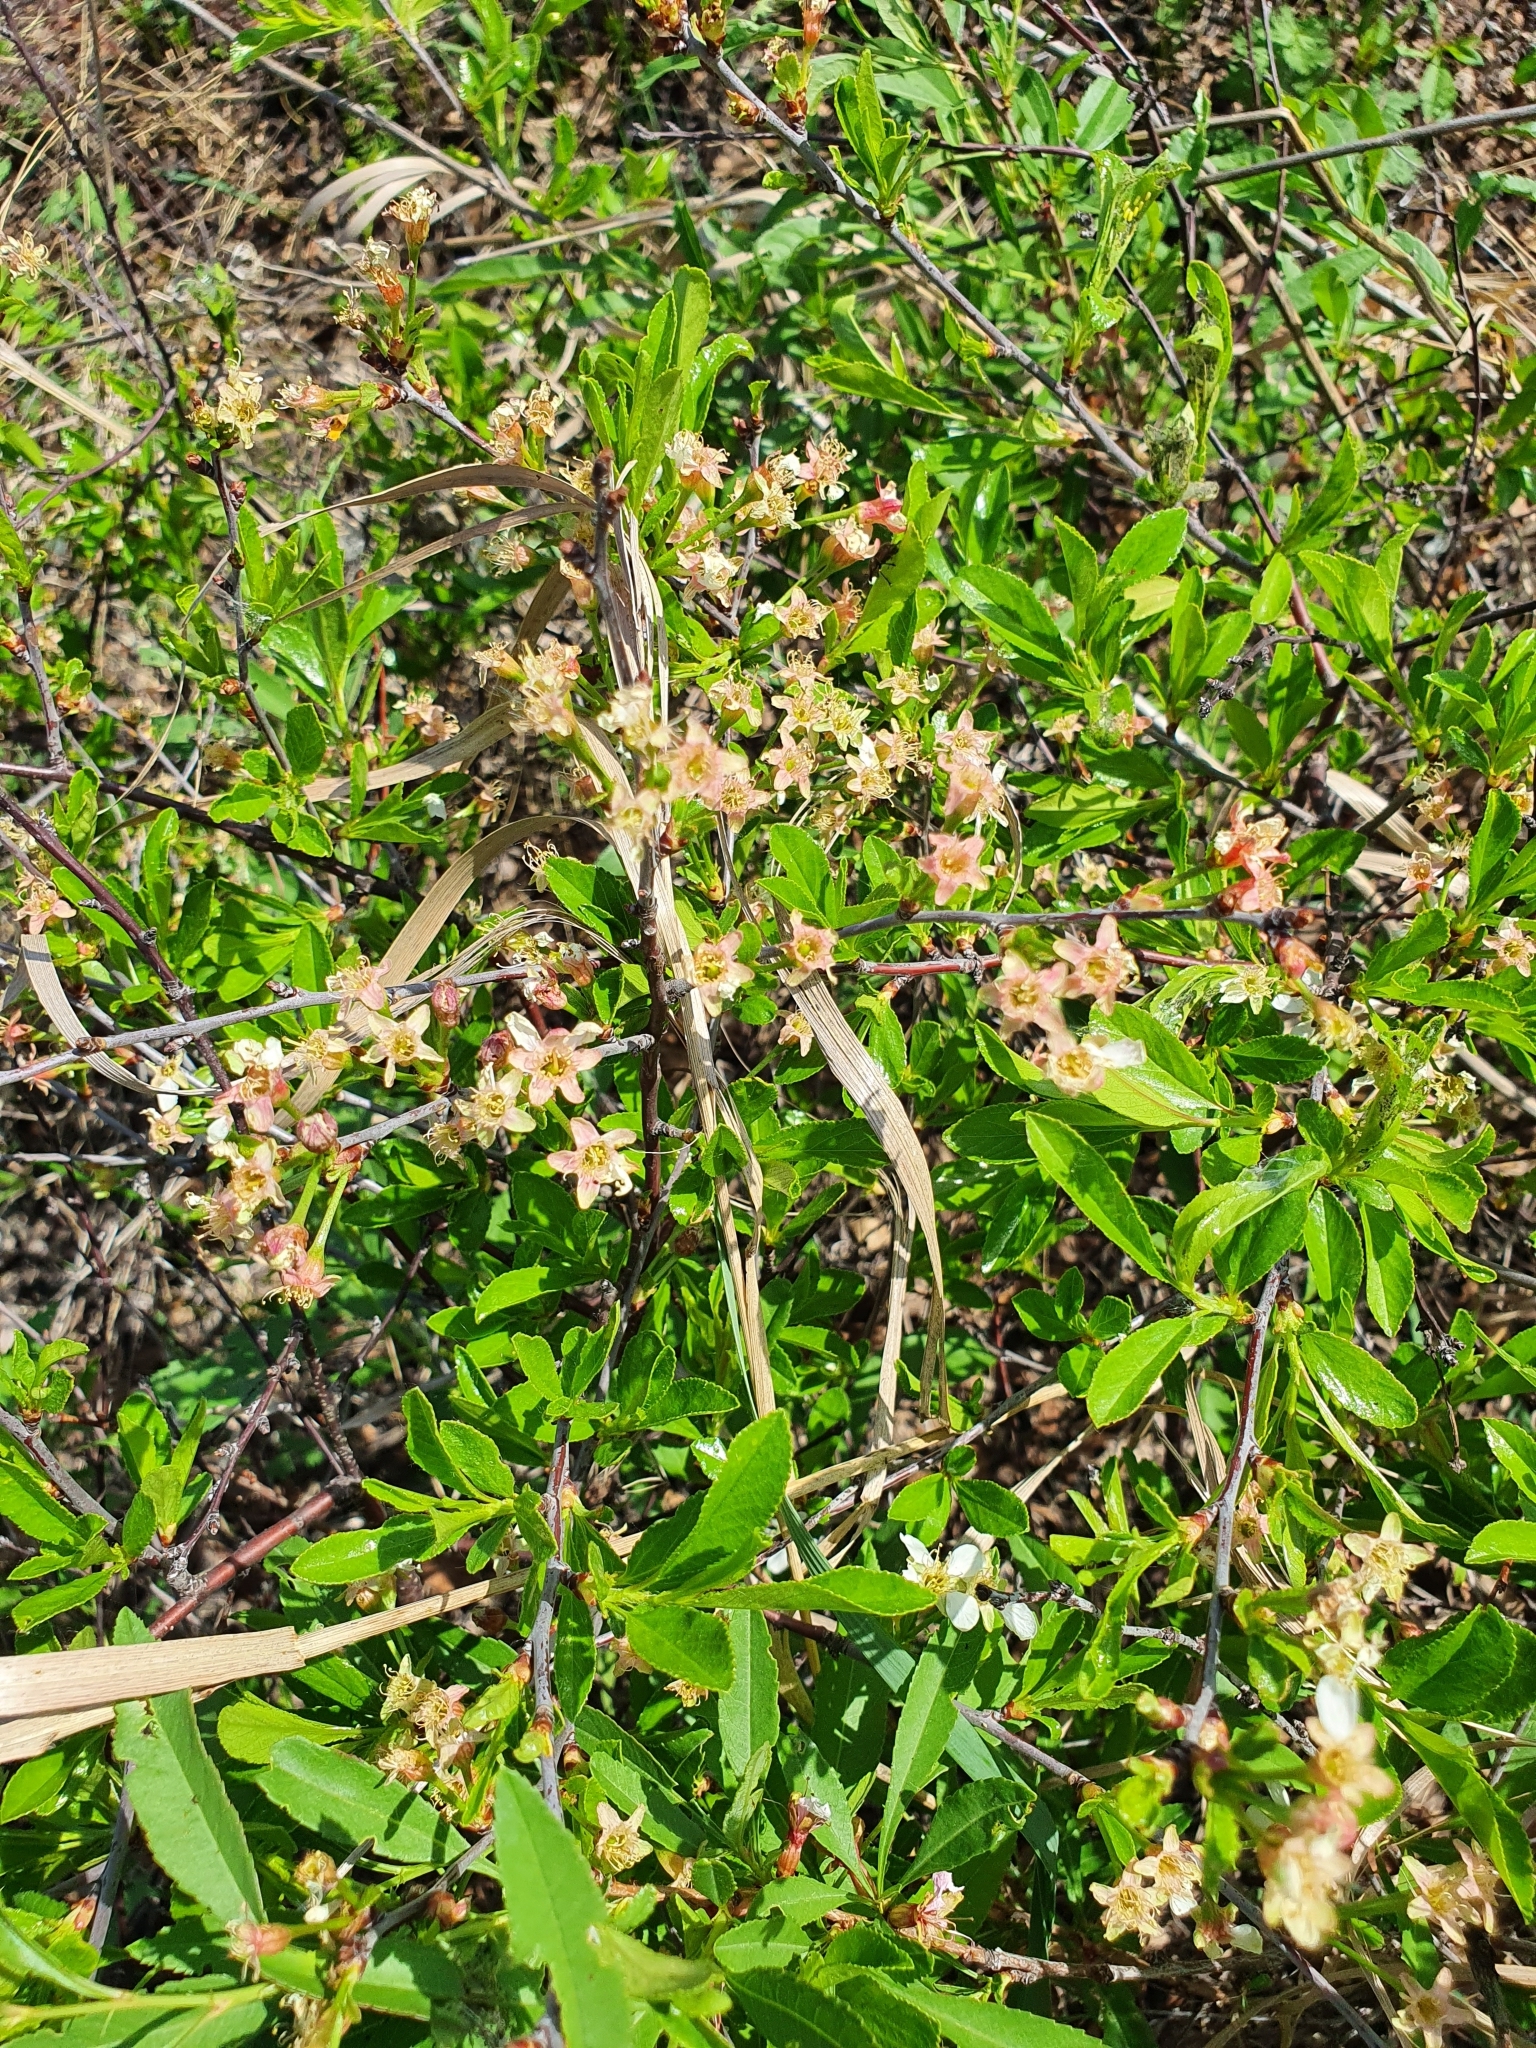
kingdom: Plantae
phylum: Tracheophyta
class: Magnoliopsida
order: Rosales
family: Rosaceae
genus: Prunus
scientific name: Prunus fruticosa
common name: European dwarf cherry
